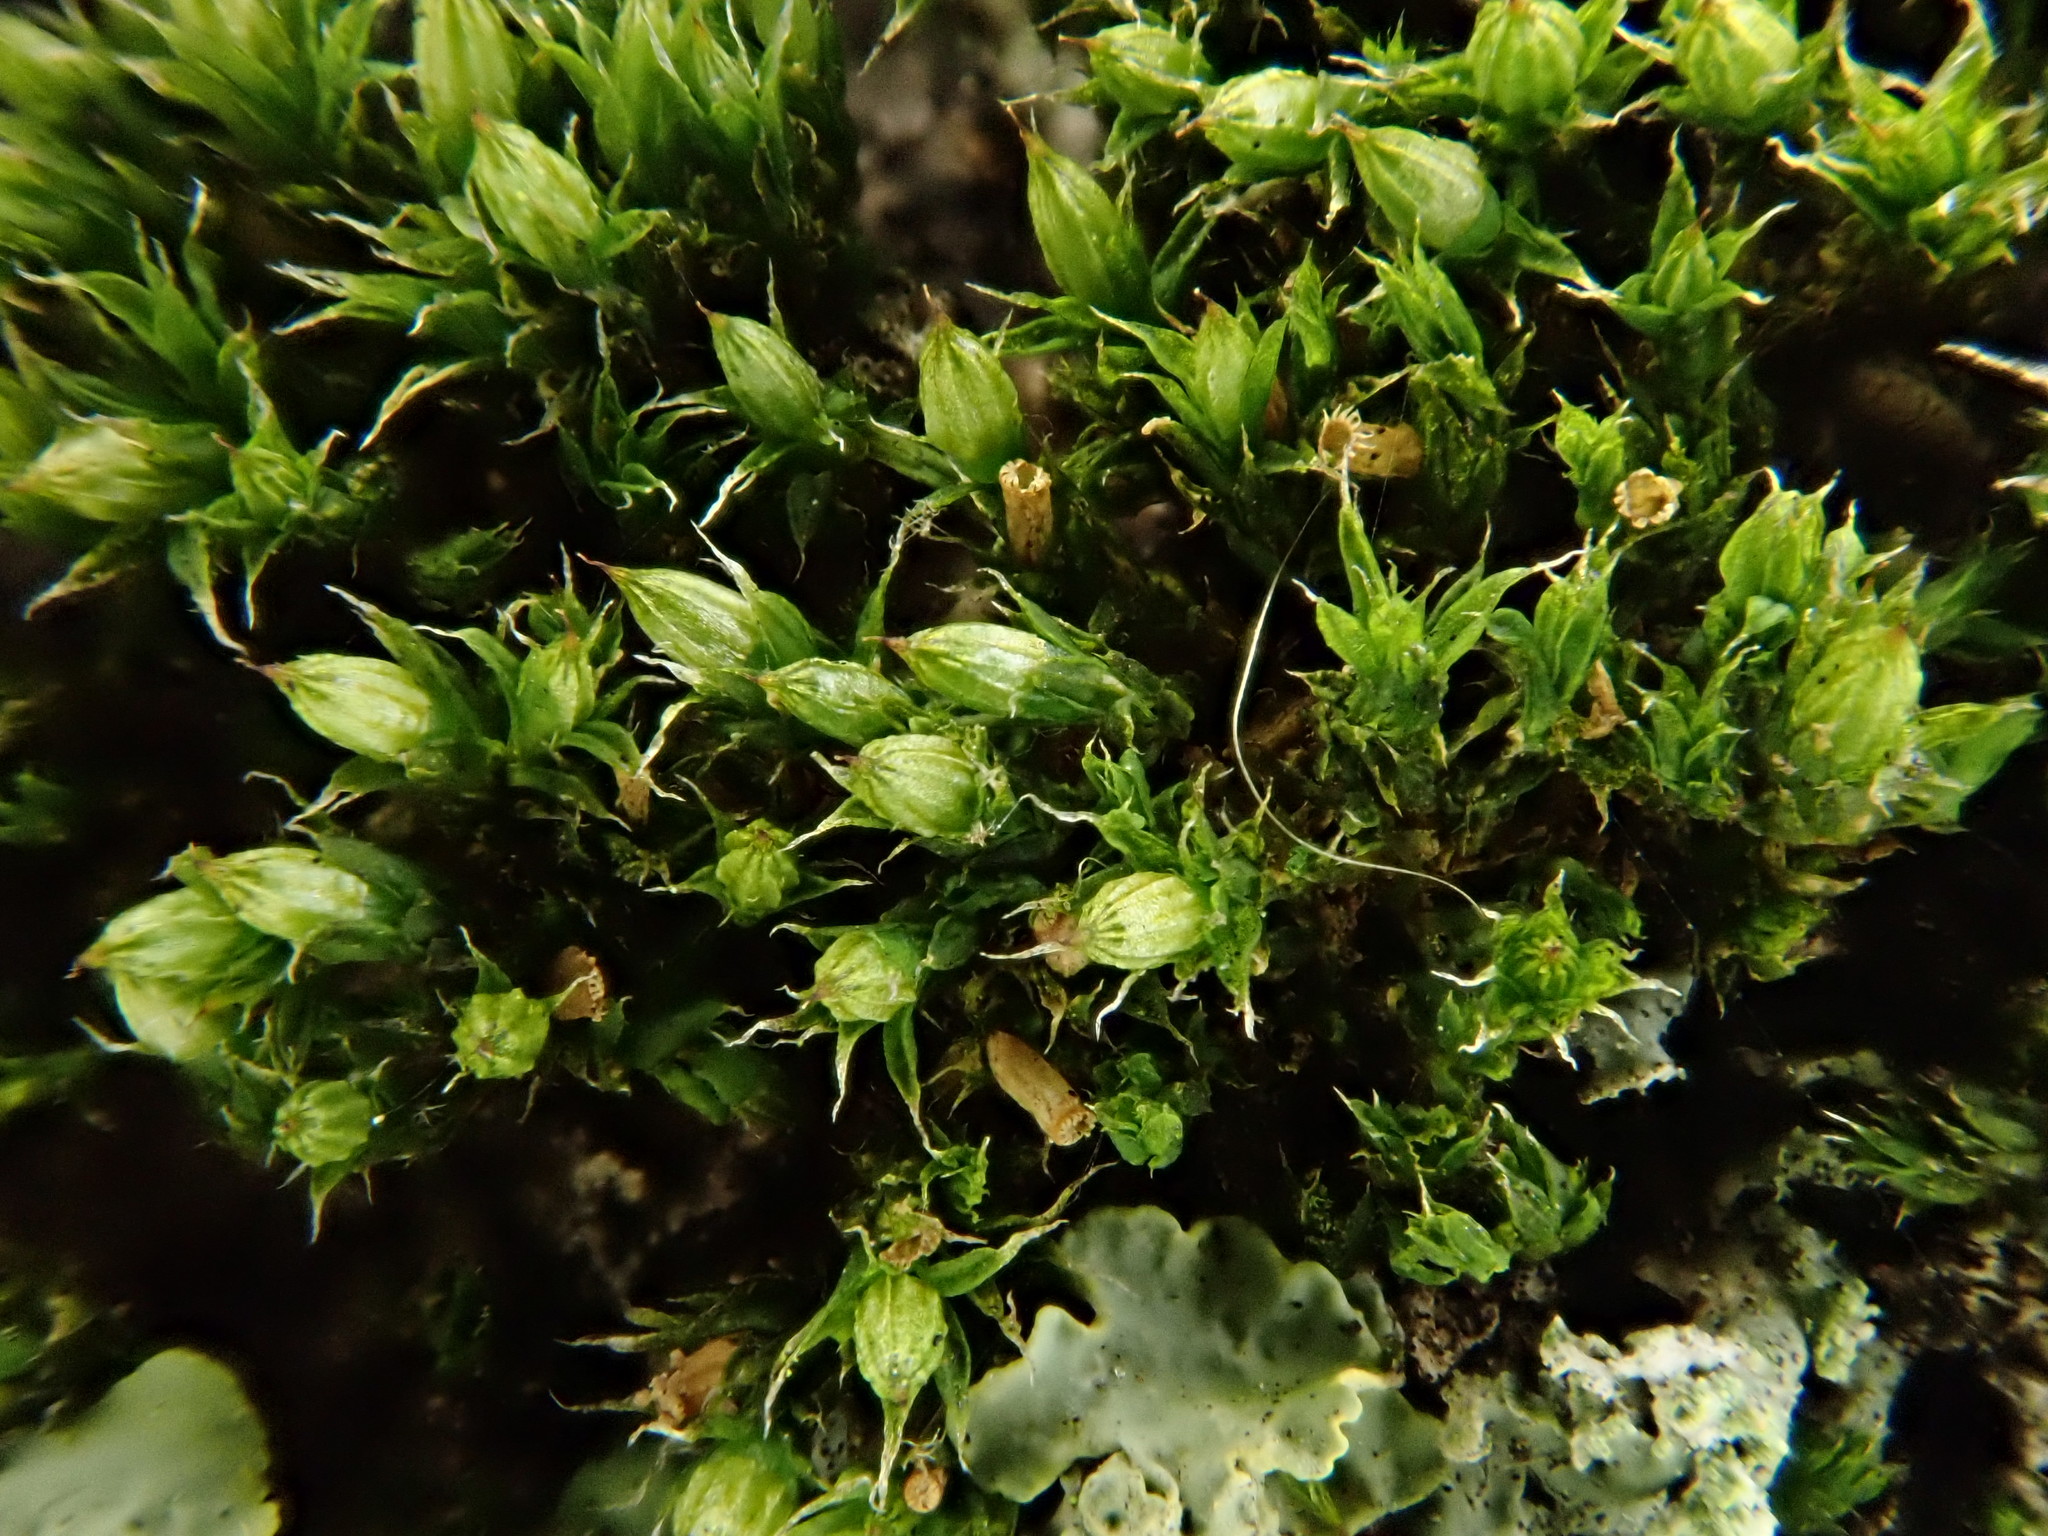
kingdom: Plantae
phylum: Bryophyta
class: Bryopsida
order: Orthotrichales
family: Orthotrichaceae
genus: Orthotrichum
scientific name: Orthotrichum diaphanum
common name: White-tipped bristle-moss
